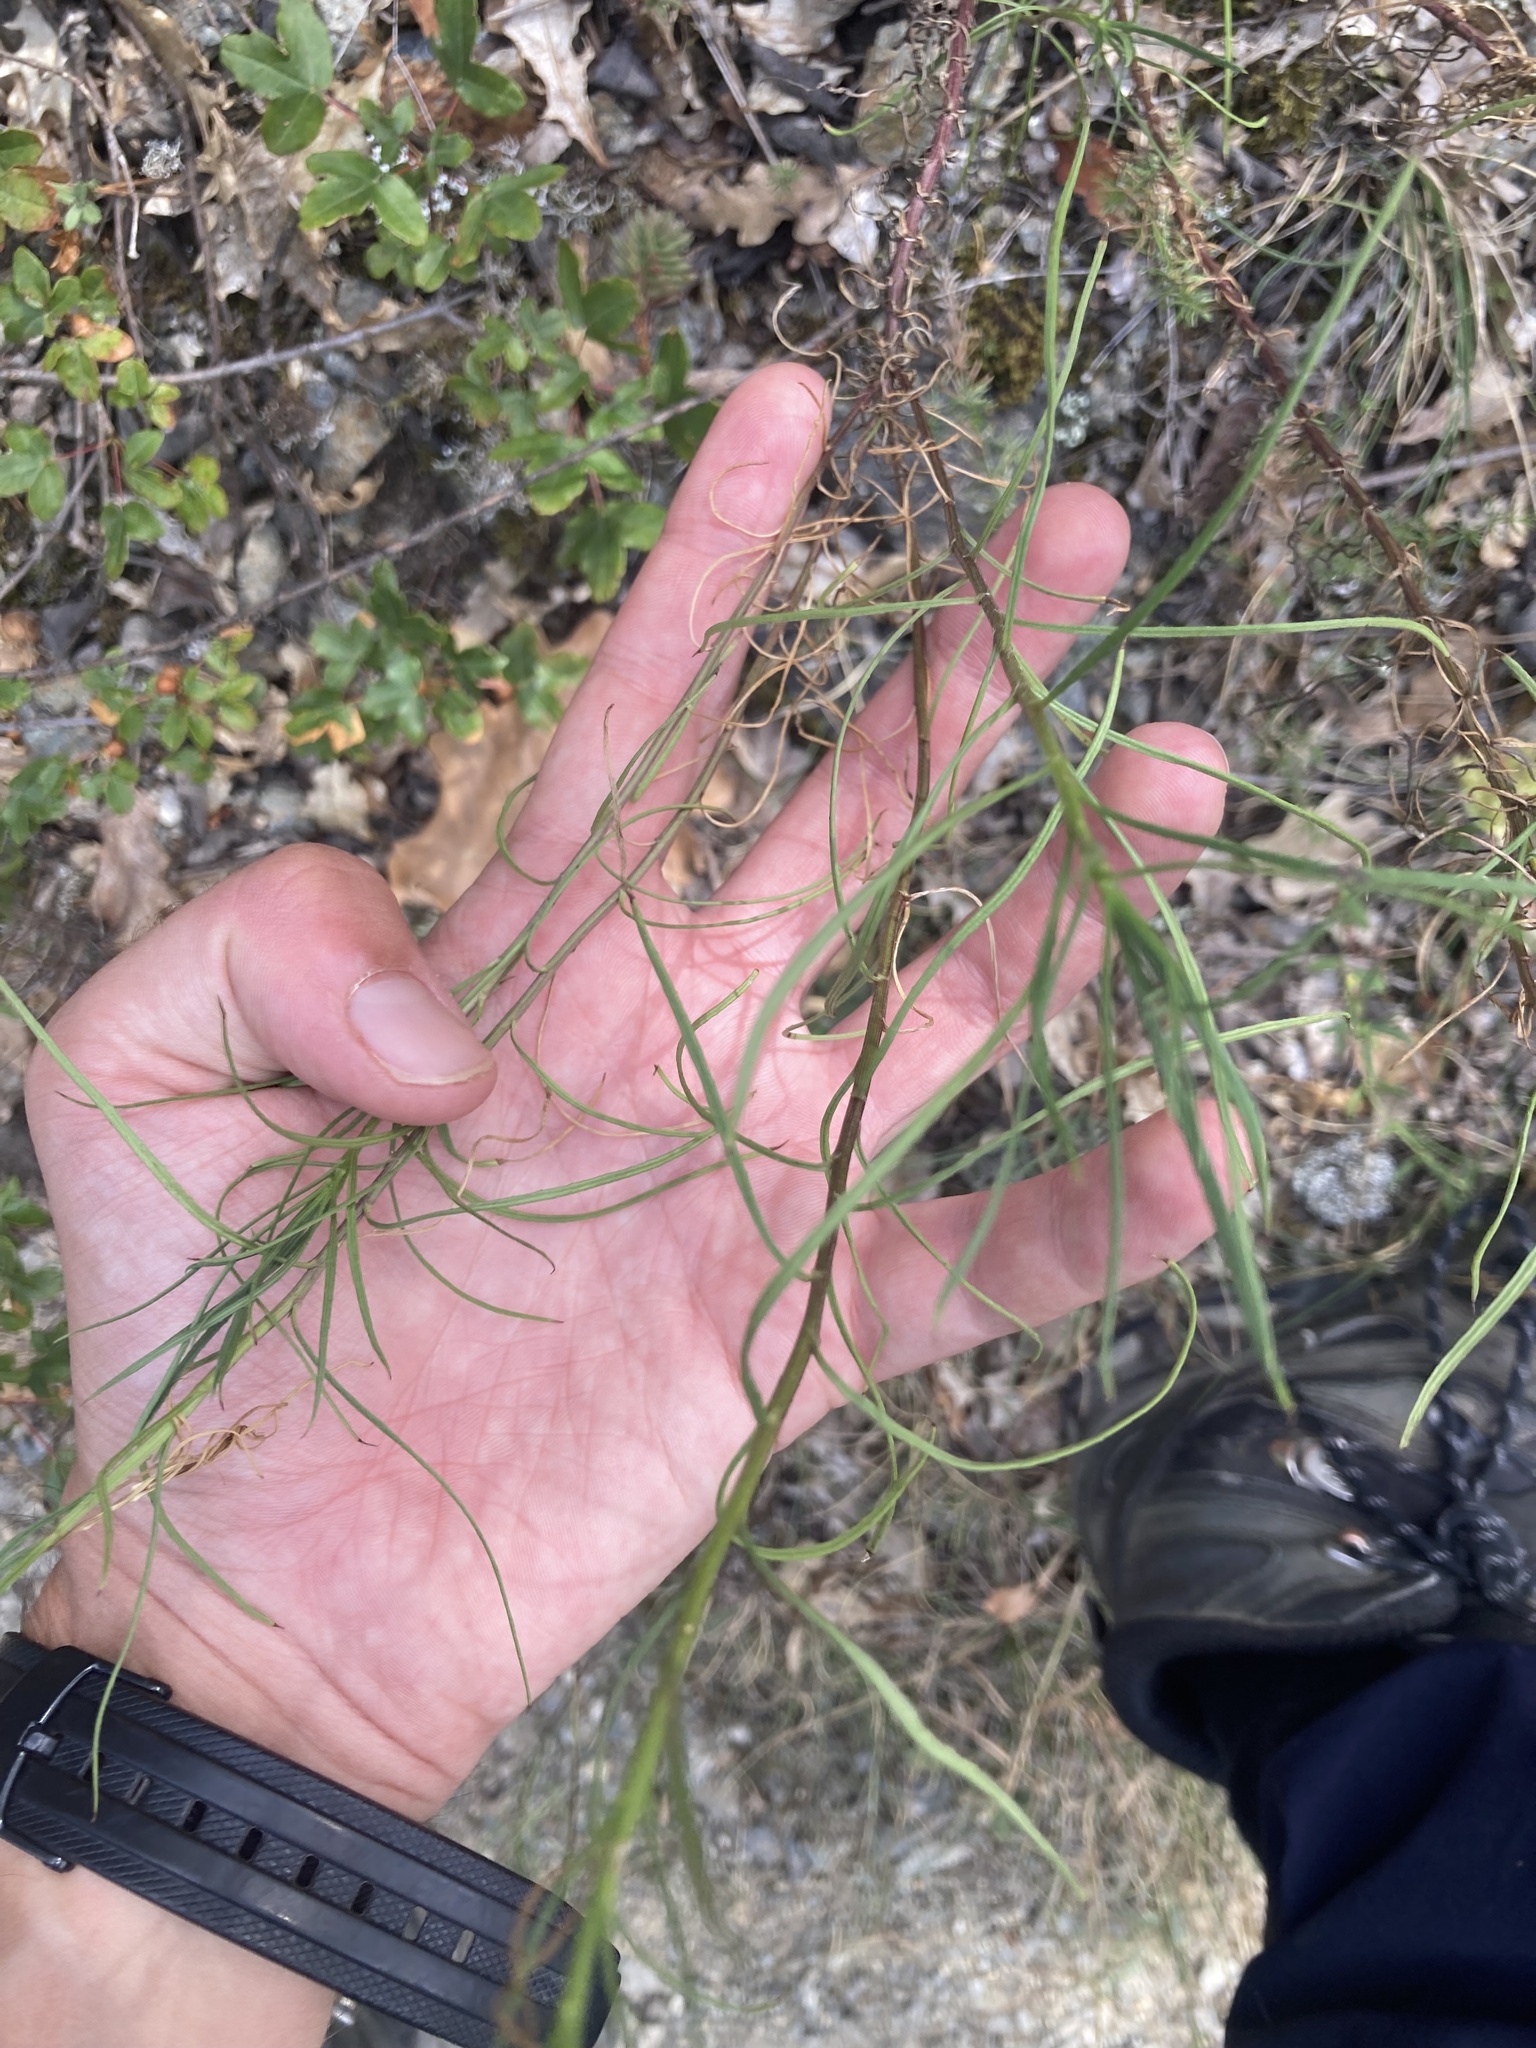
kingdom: Plantae
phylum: Tracheophyta
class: Magnoliopsida
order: Asterales
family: Asteraceae
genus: Senecio
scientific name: Senecio inaequidens
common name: Narrow-leaved ragwort
